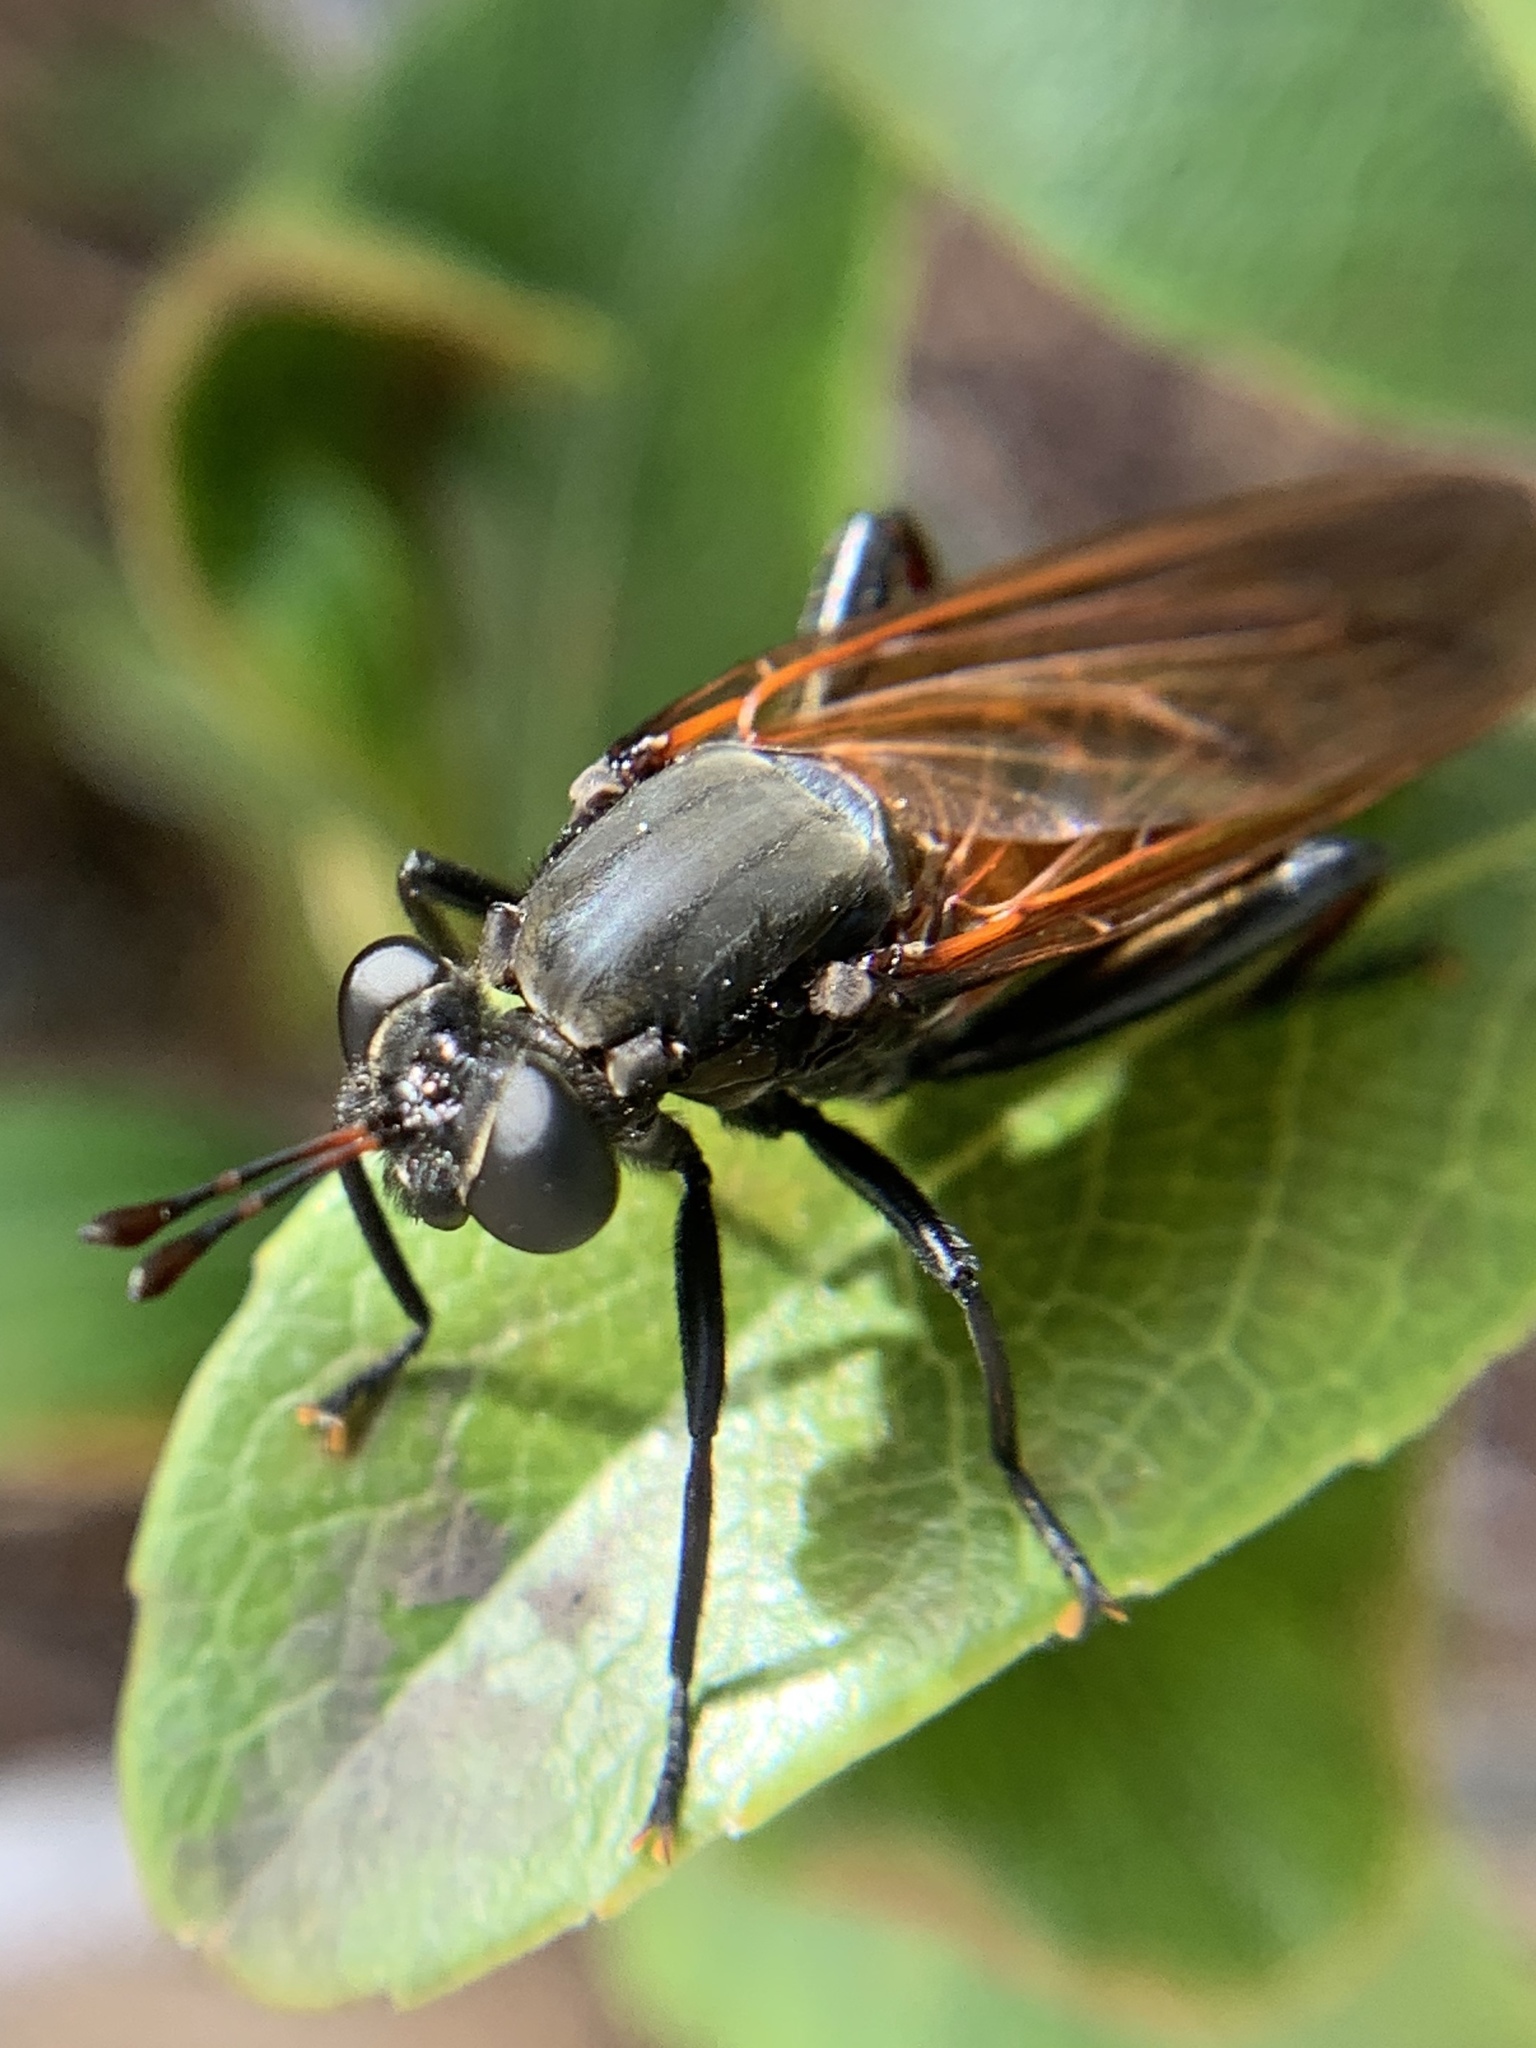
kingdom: Animalia
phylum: Arthropoda
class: Insecta
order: Diptera
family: Mydidae
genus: Mydas
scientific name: Mydas maculiventris
